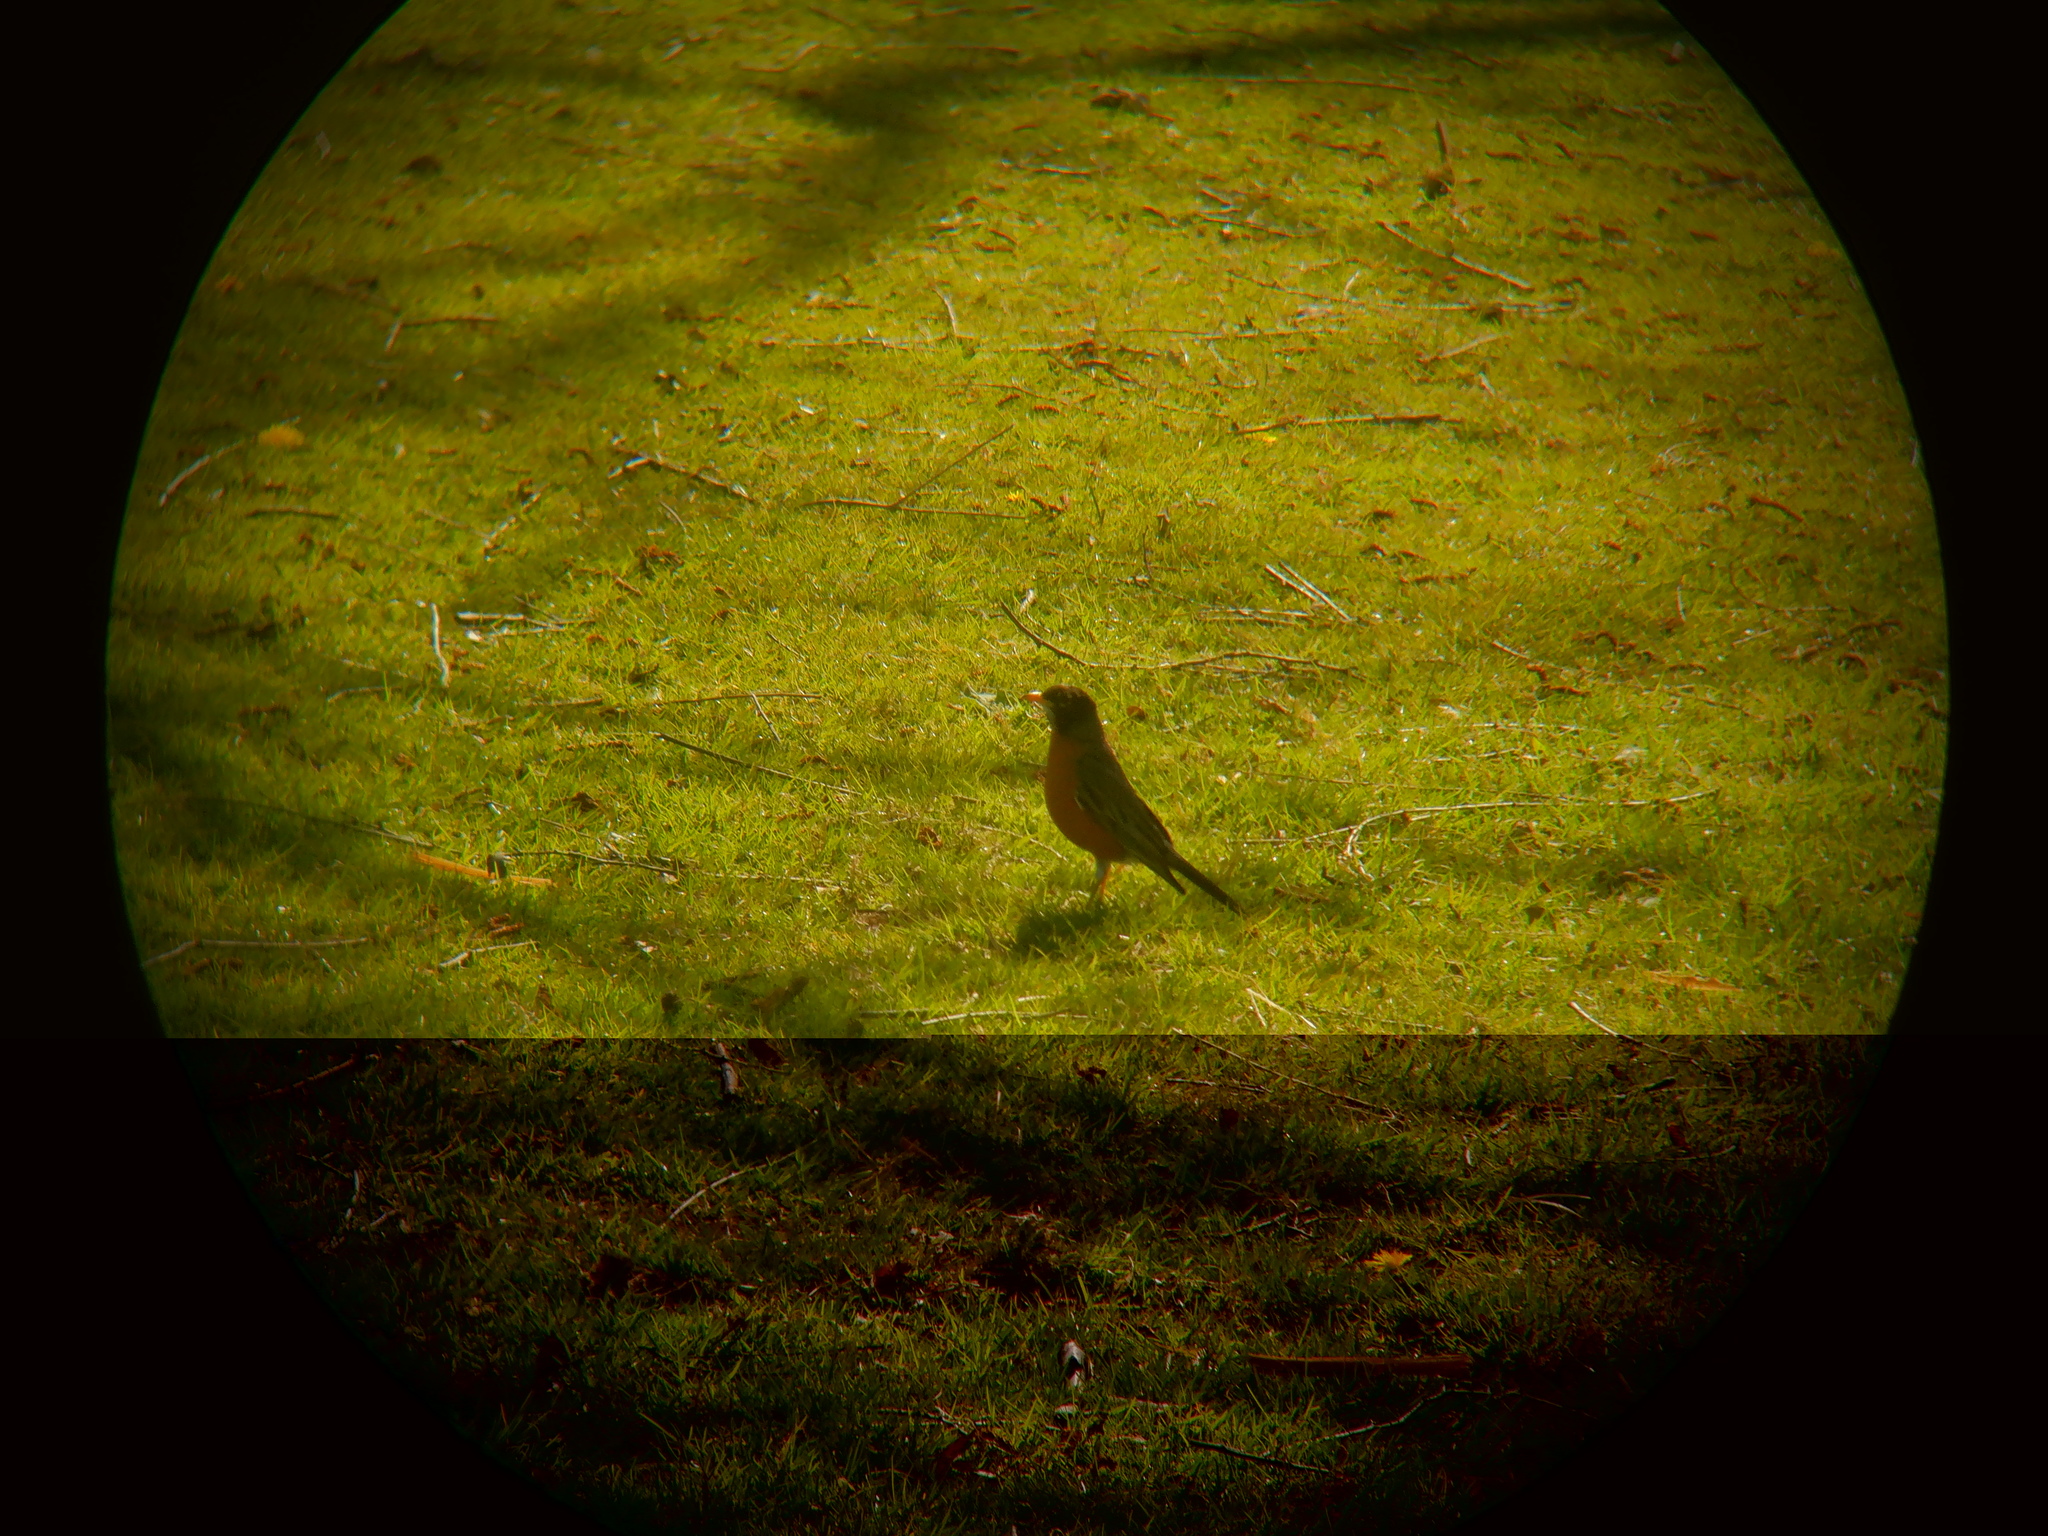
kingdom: Animalia
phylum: Chordata
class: Aves
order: Passeriformes
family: Turdidae
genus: Turdus
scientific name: Turdus migratorius
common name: American robin
